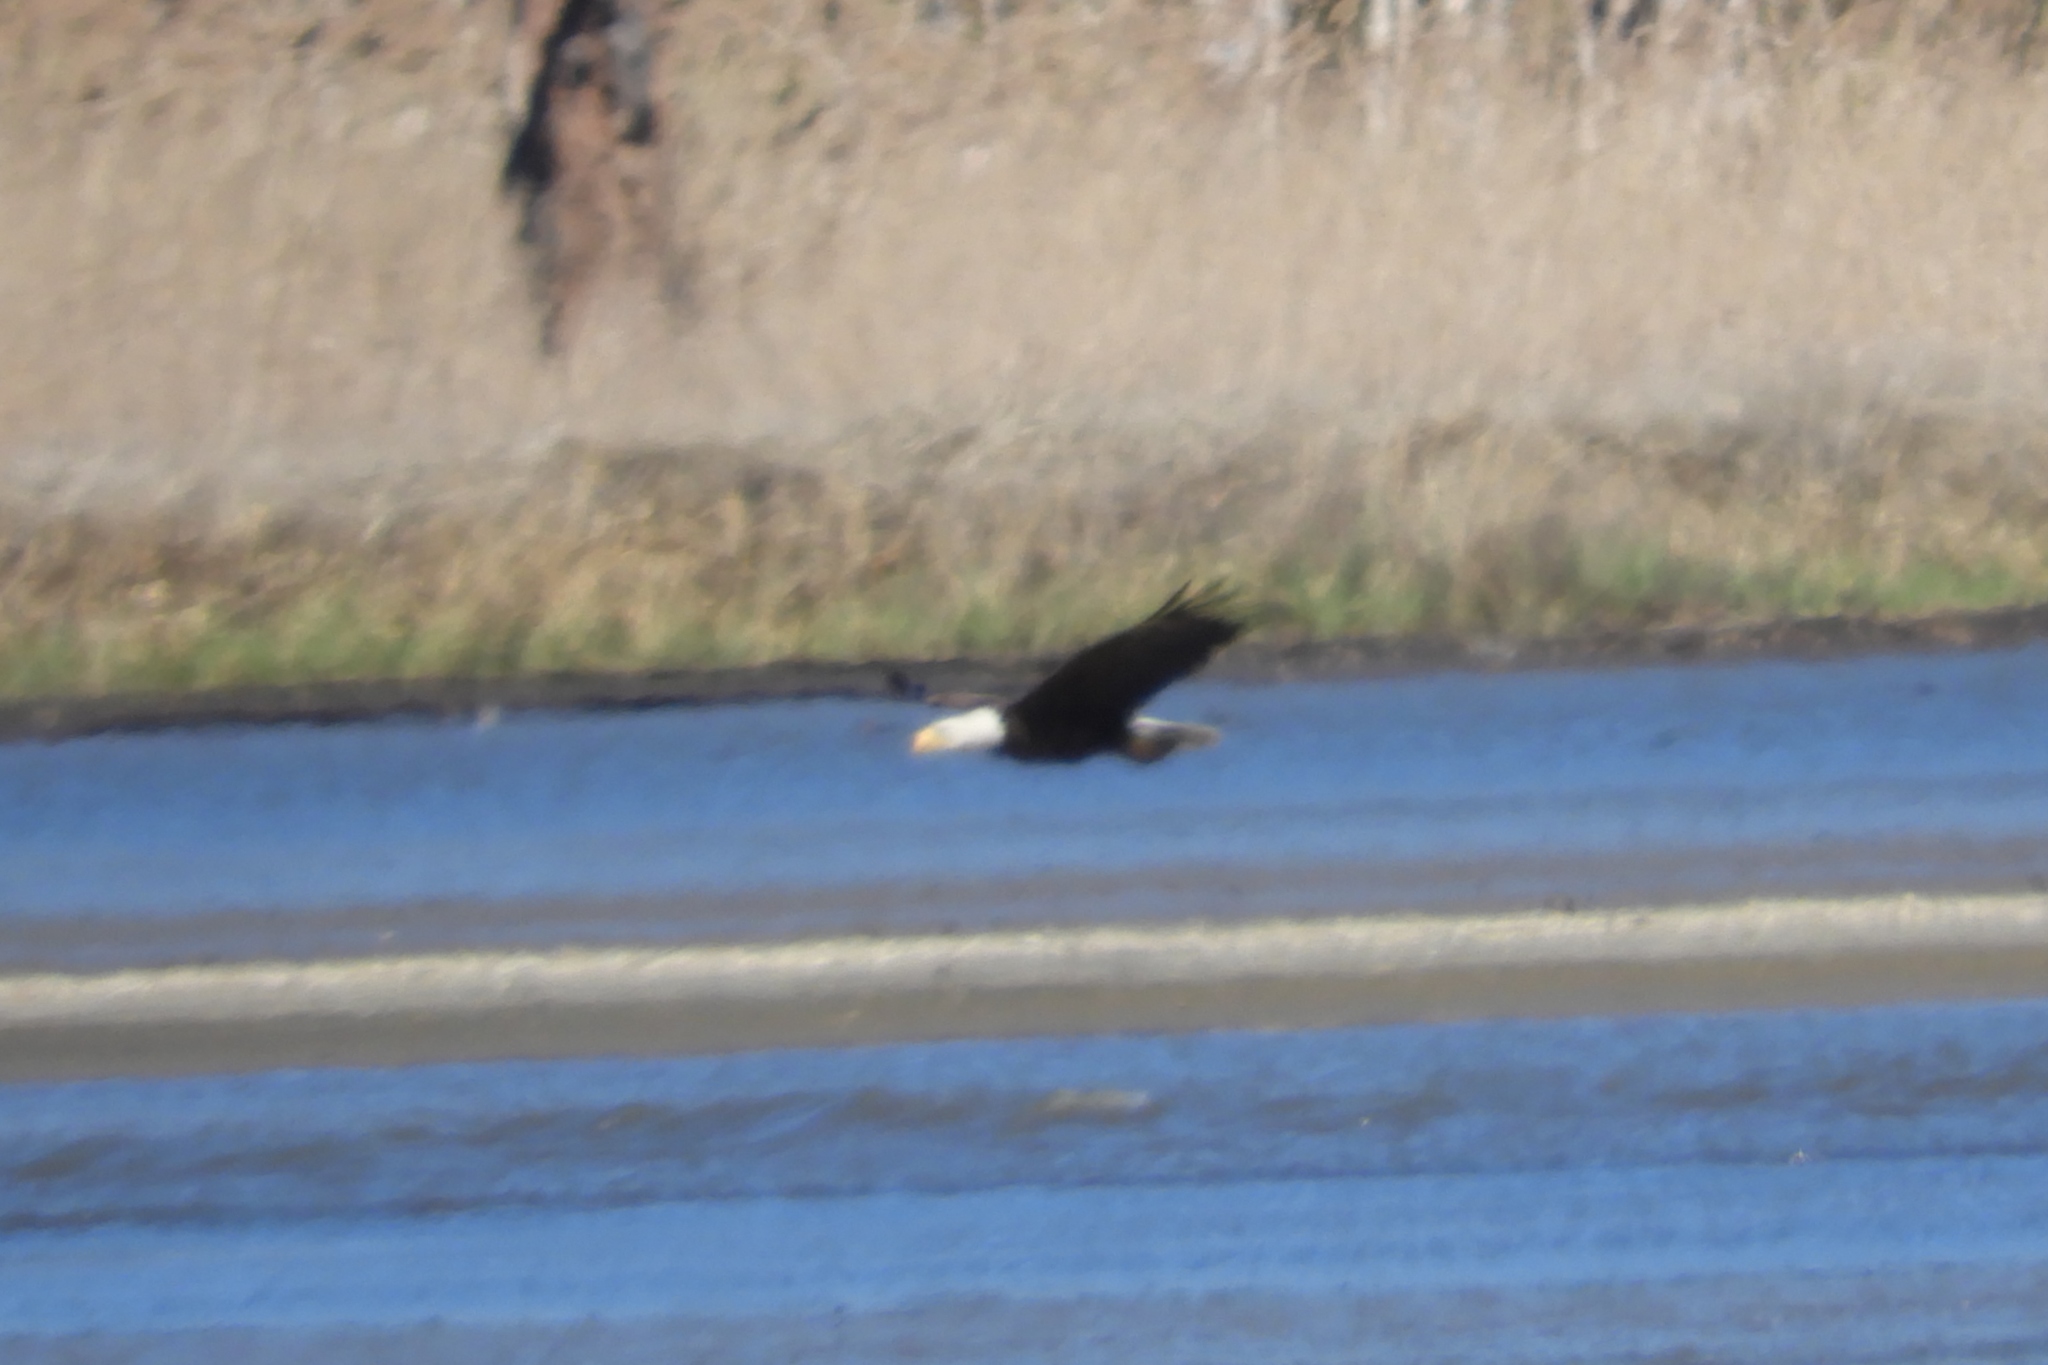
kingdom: Animalia
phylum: Chordata
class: Aves
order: Accipitriformes
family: Accipitridae
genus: Haliaeetus
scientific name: Haliaeetus leucocephalus
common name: Bald eagle
